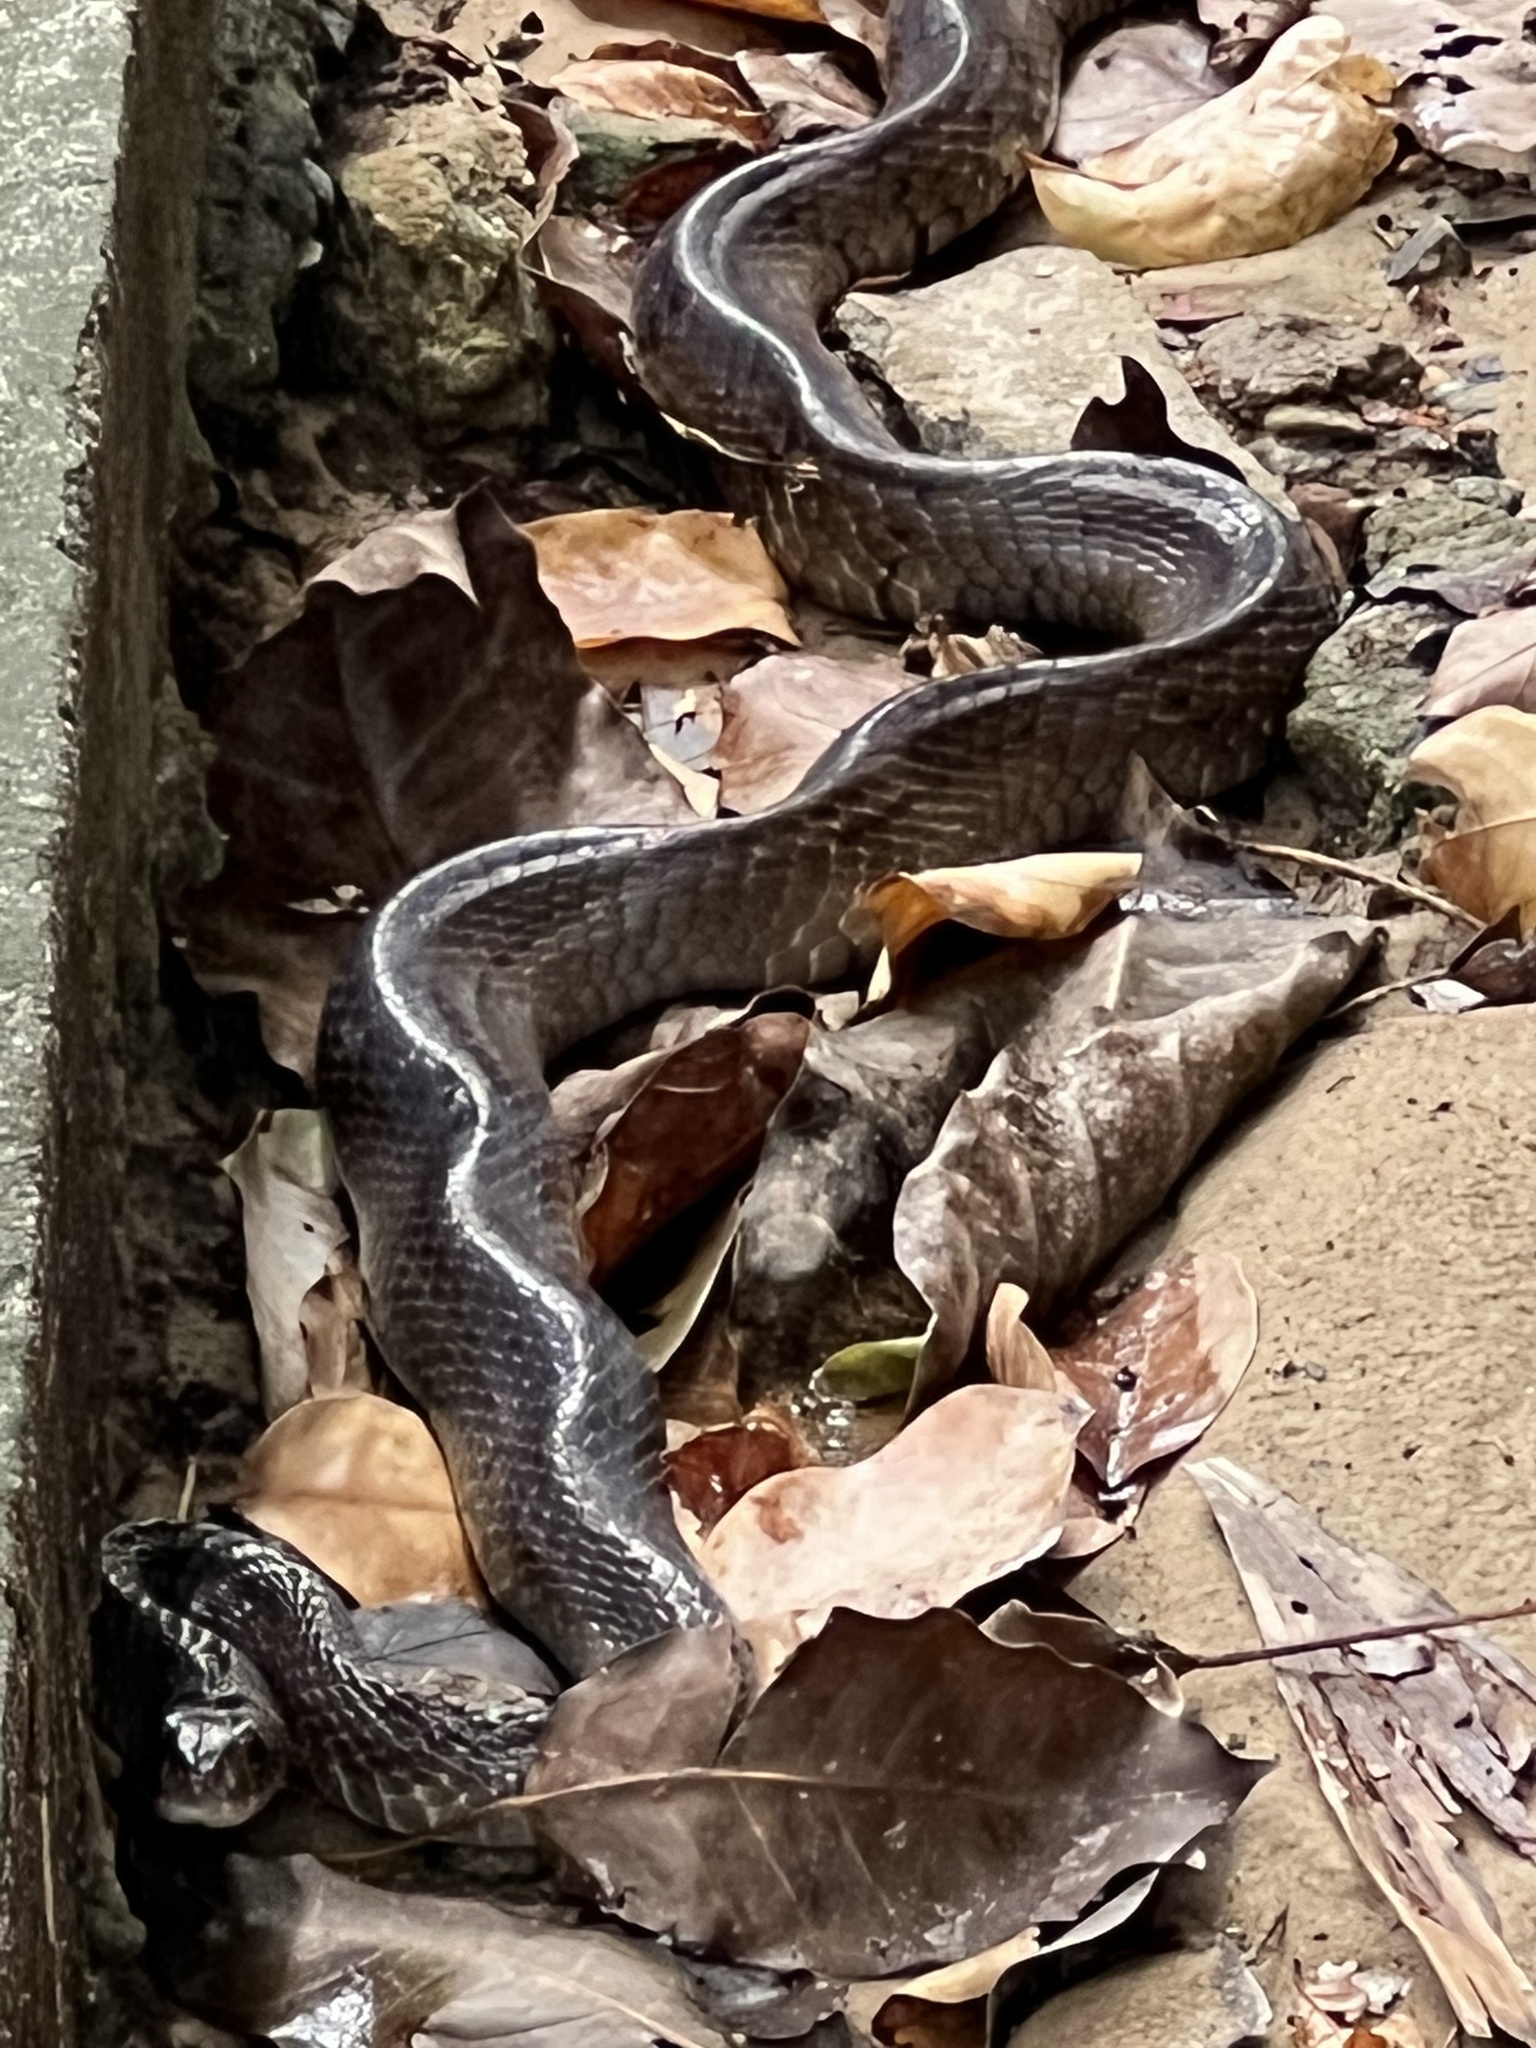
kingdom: Animalia
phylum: Chordata
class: Squamata
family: Colubridae
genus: Ptyas
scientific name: Ptyas mucosa
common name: Oriental ratsnake
